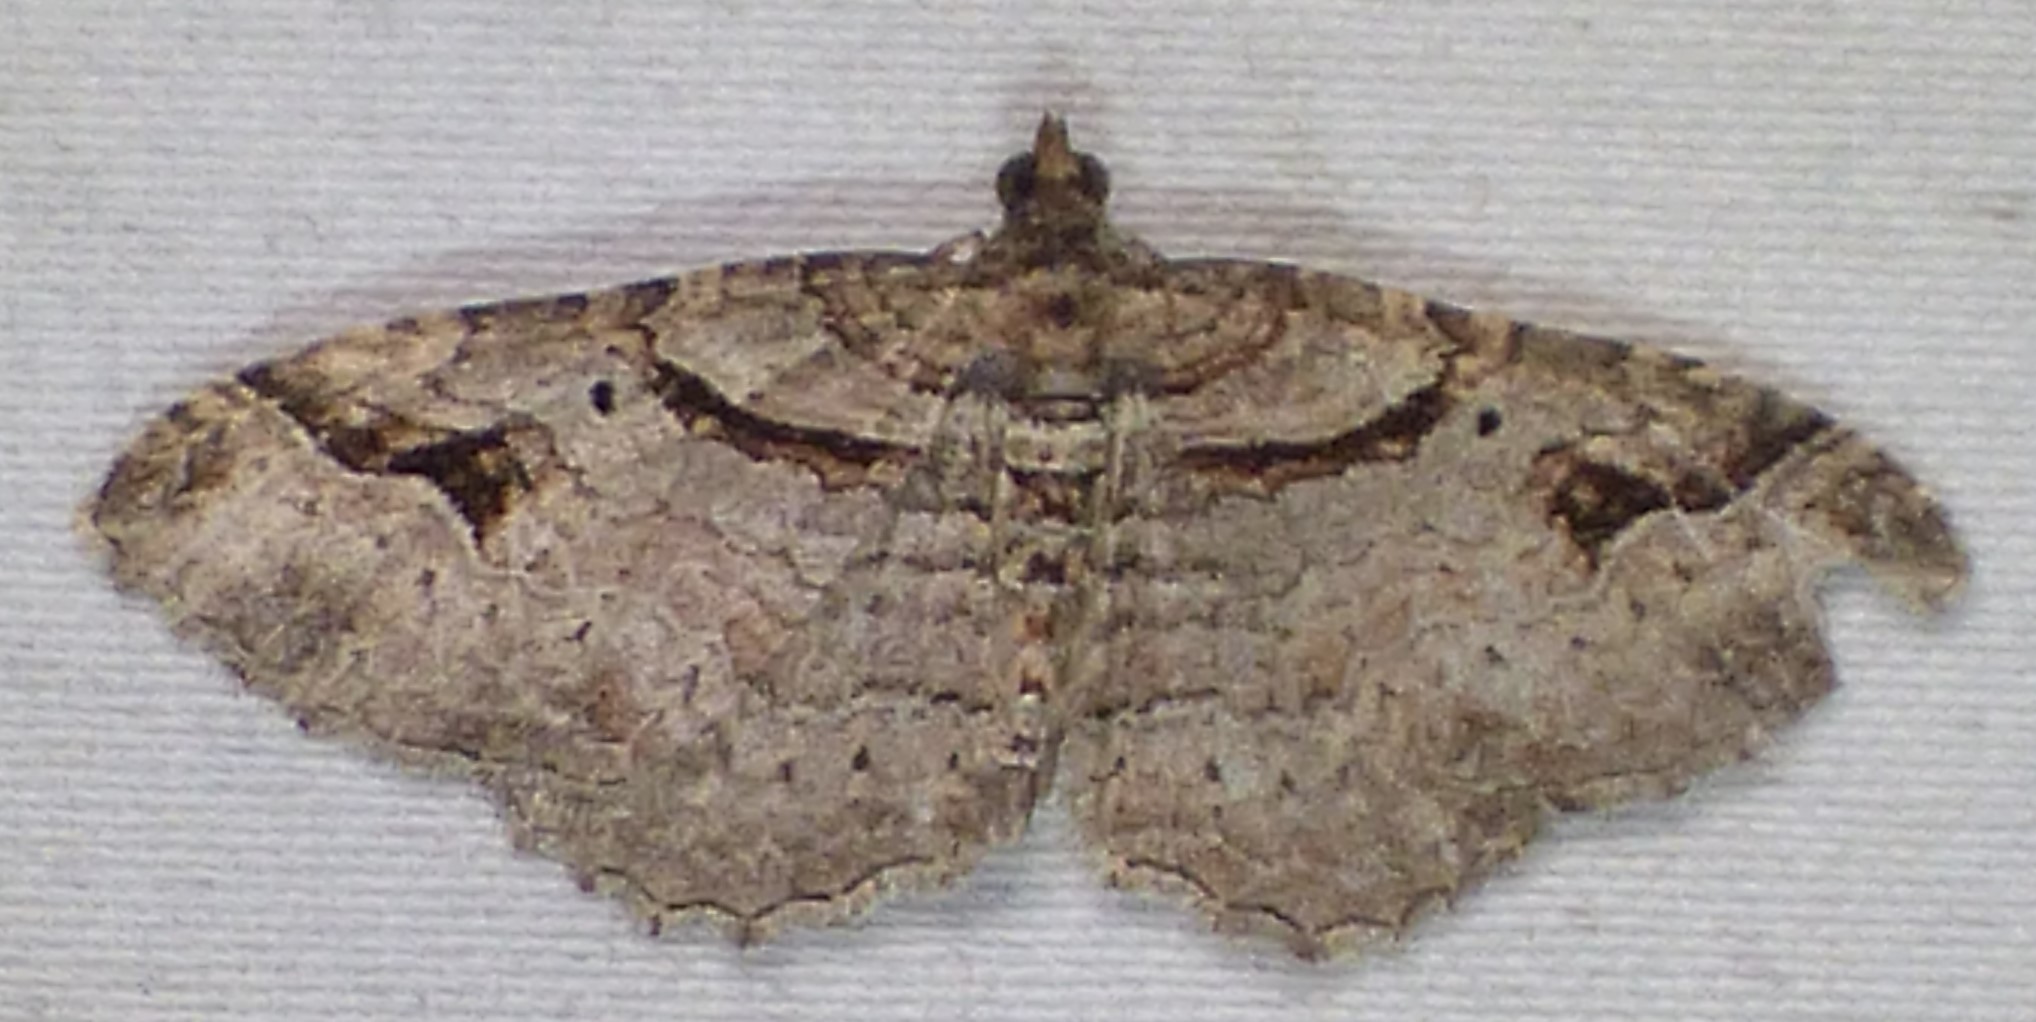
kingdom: Animalia
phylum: Arthropoda
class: Insecta
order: Lepidoptera
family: Geometridae
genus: Costaconvexa
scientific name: Costaconvexa centrostrigaria
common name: Bent-line carpet
